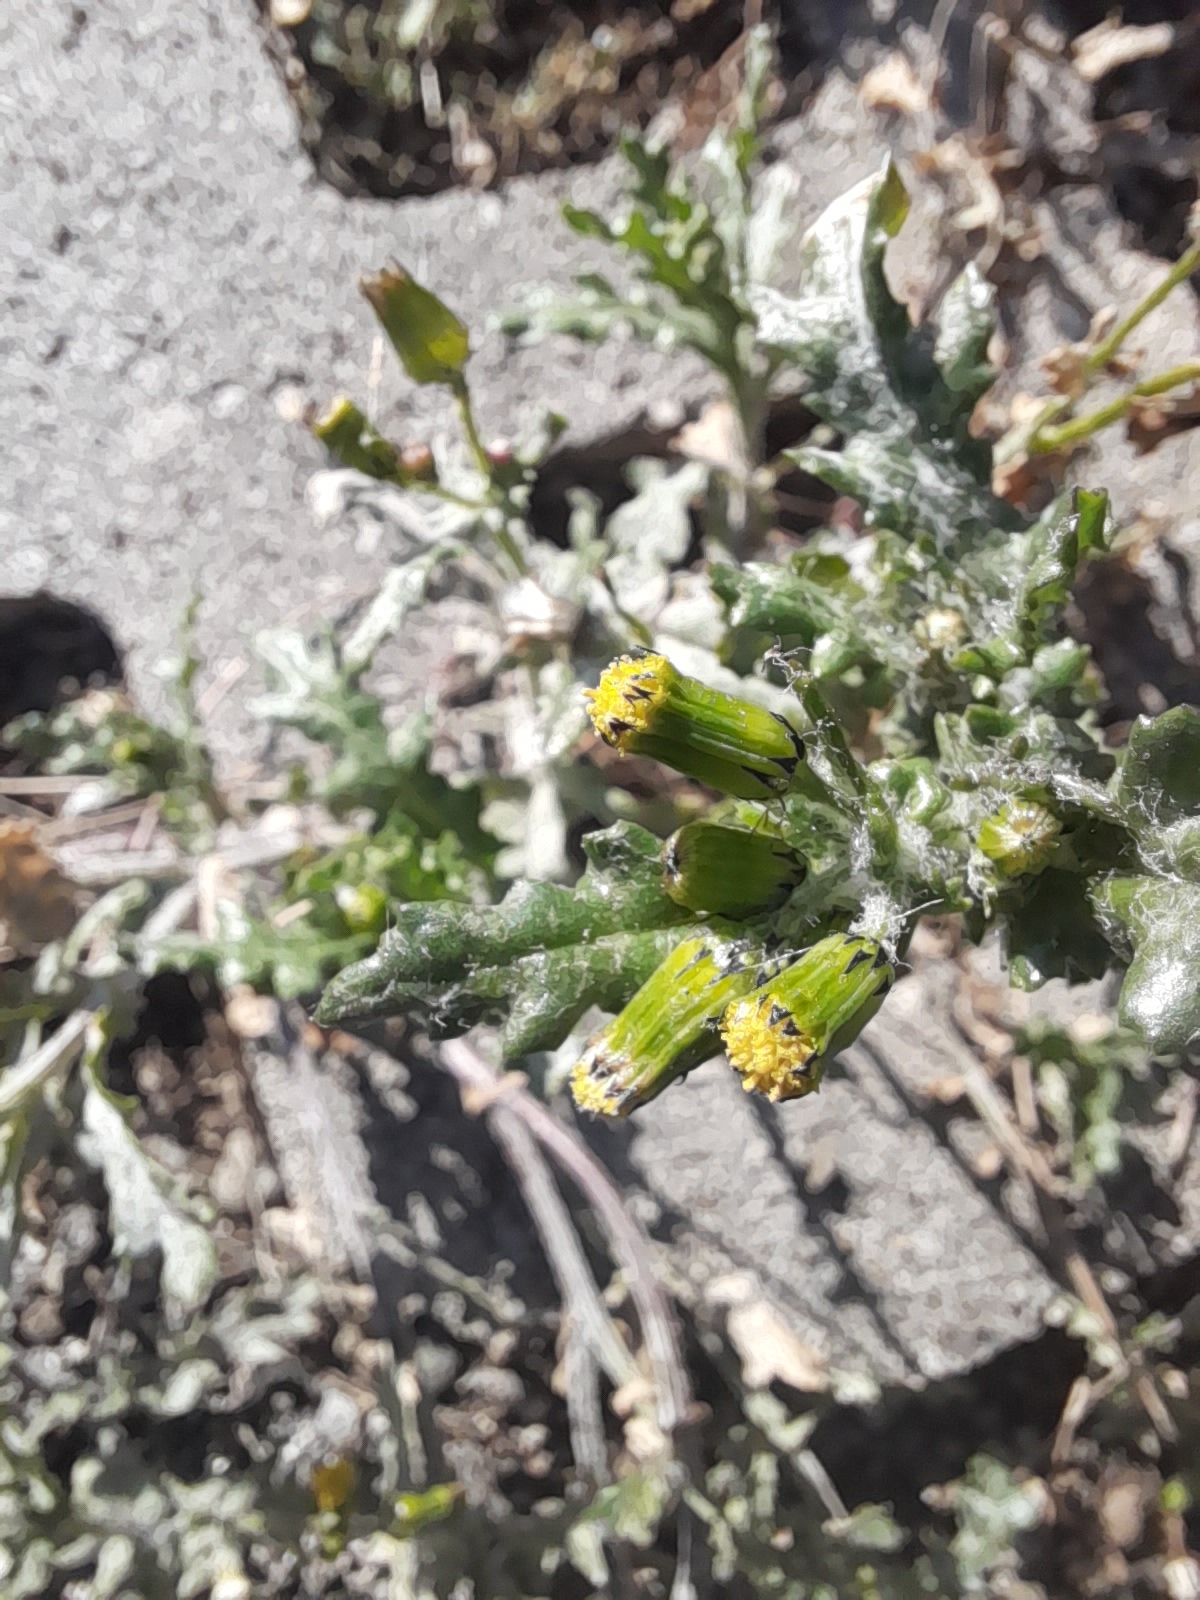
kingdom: Plantae
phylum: Tracheophyta
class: Magnoliopsida
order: Asterales
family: Asteraceae
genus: Senecio
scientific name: Senecio vulgaris
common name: Old-man-in-the-spring
